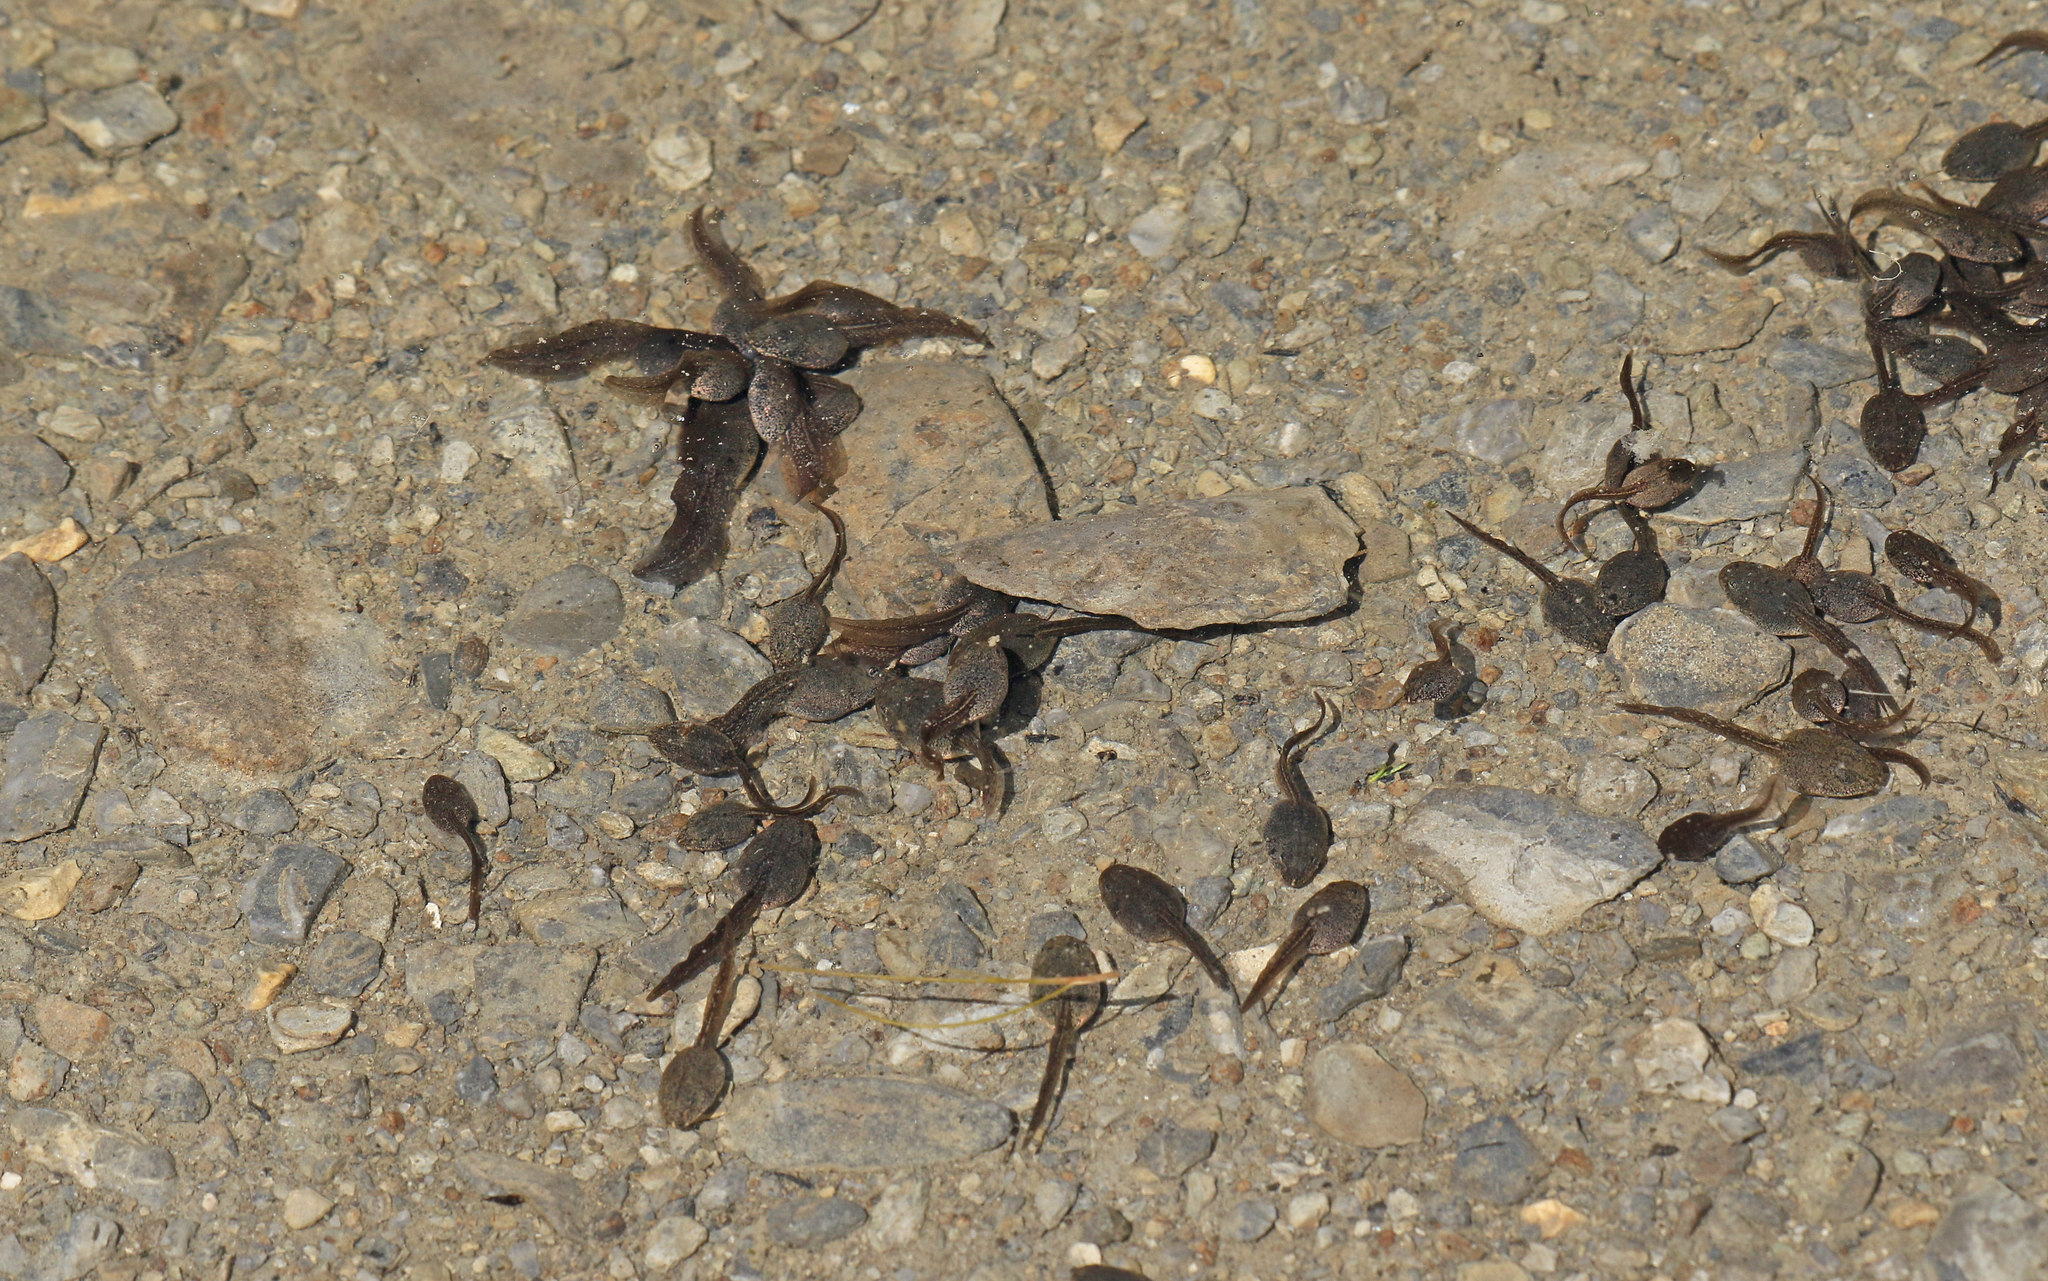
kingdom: Animalia
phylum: Chordata
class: Amphibia
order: Anura
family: Ranidae
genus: Rana
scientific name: Rana temporaria
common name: Common frog
